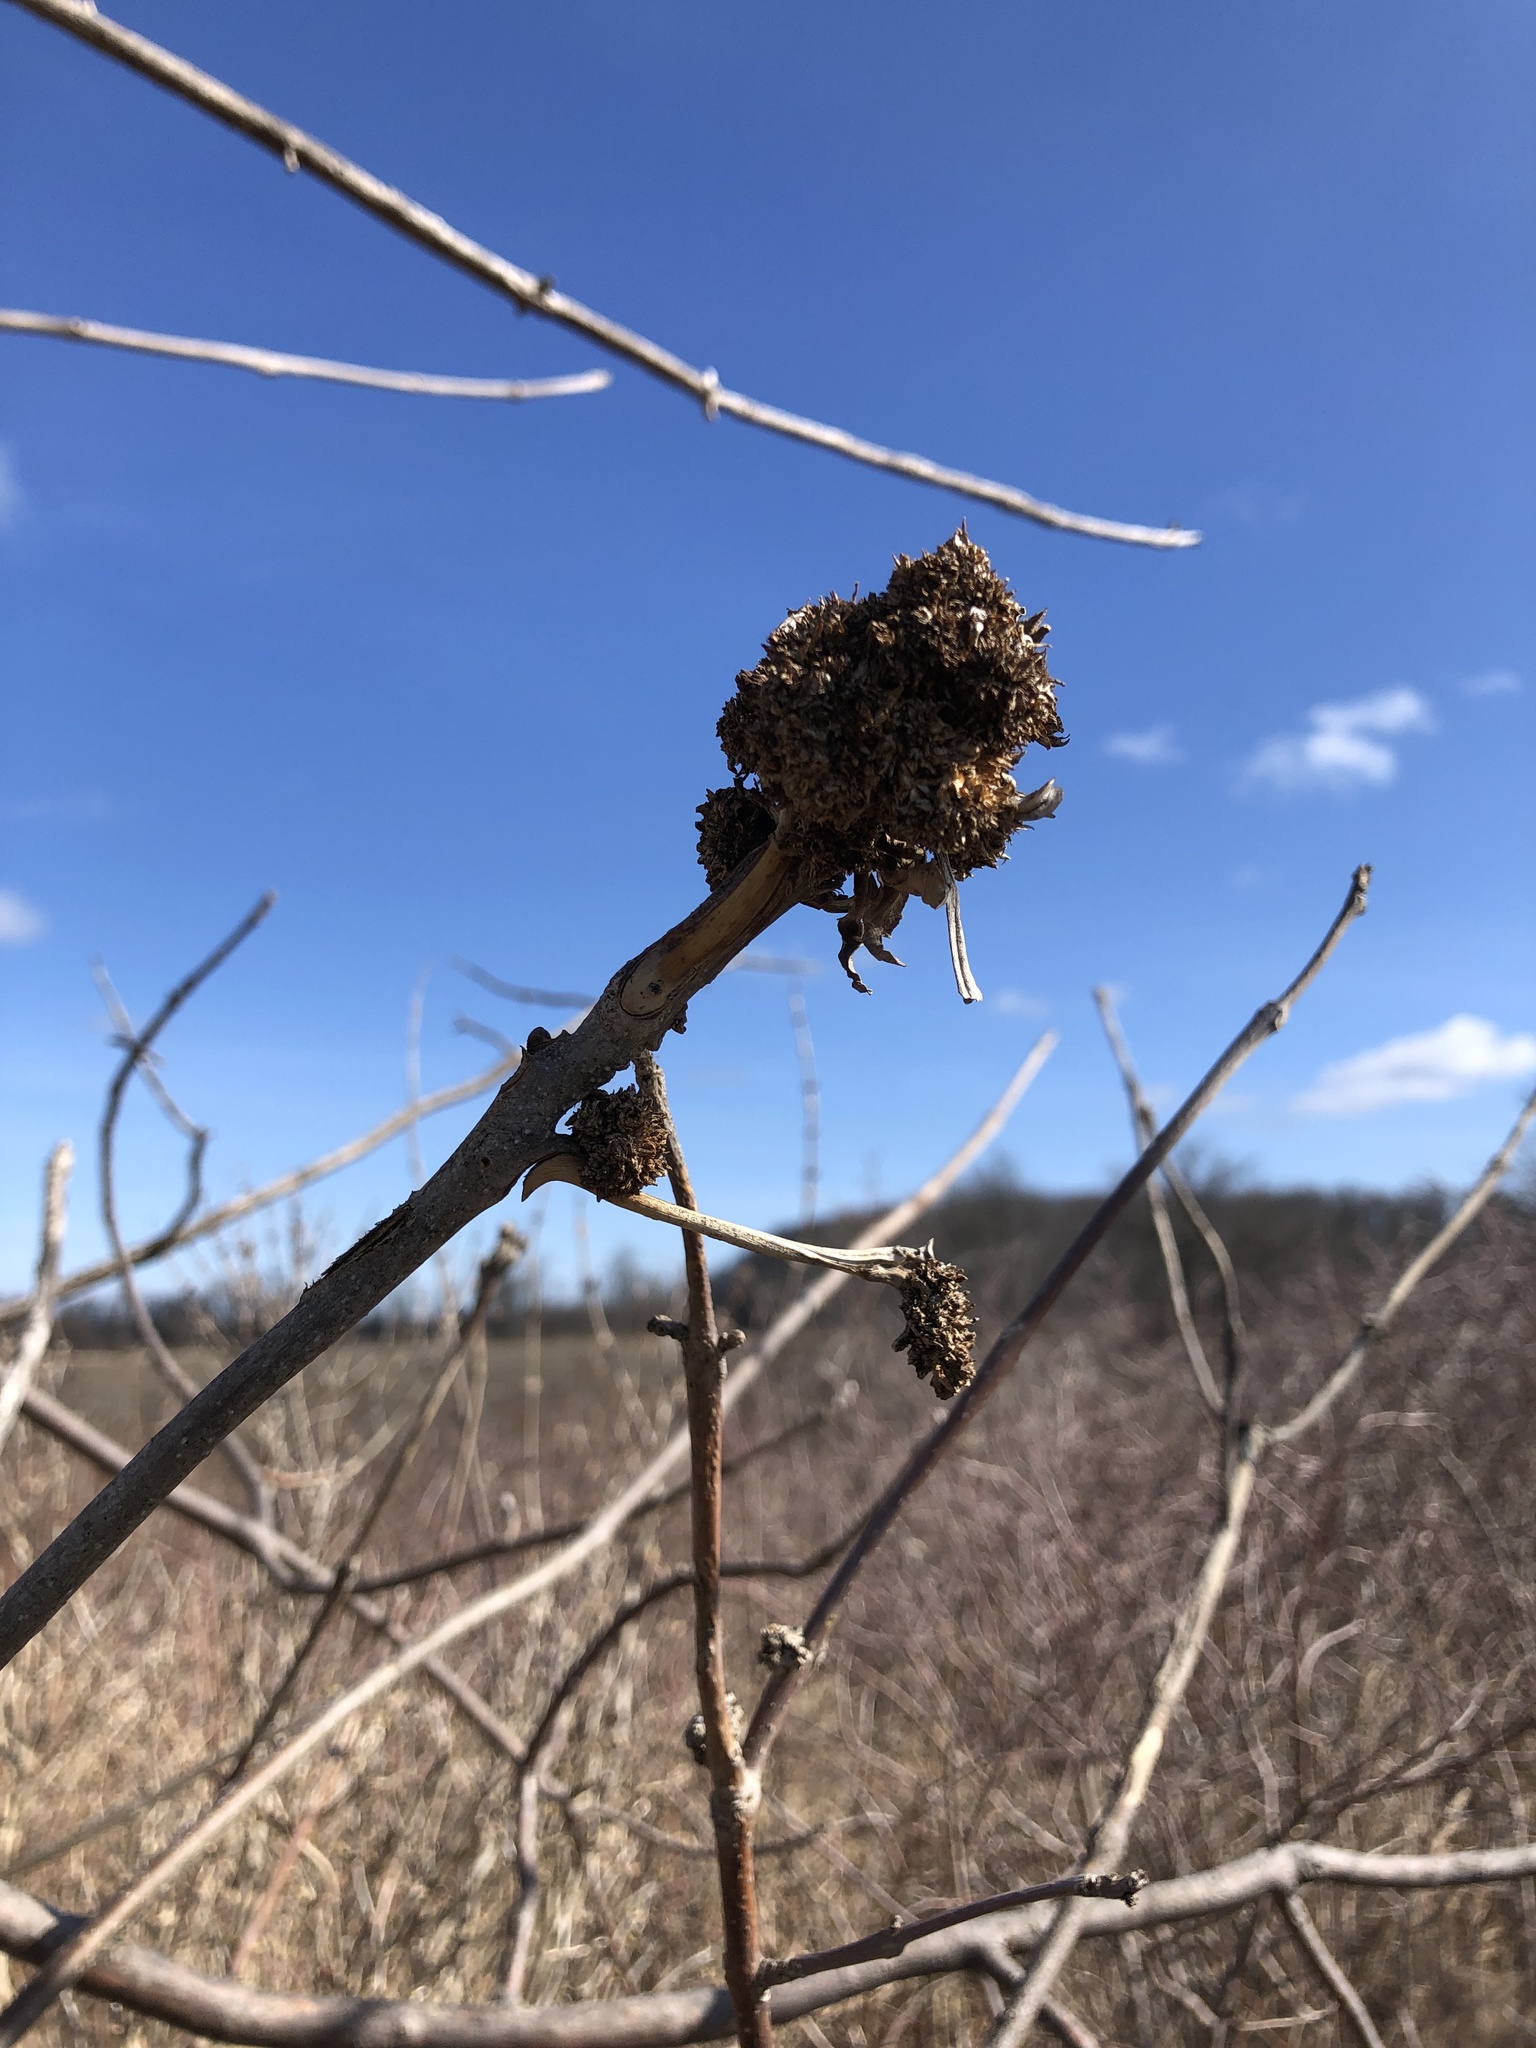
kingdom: Animalia
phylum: Arthropoda
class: Arachnida
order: Trombidiformes
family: Eriophyidae
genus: Aceria
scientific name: Aceria fraxiniflora
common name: Ash flower gall mite
